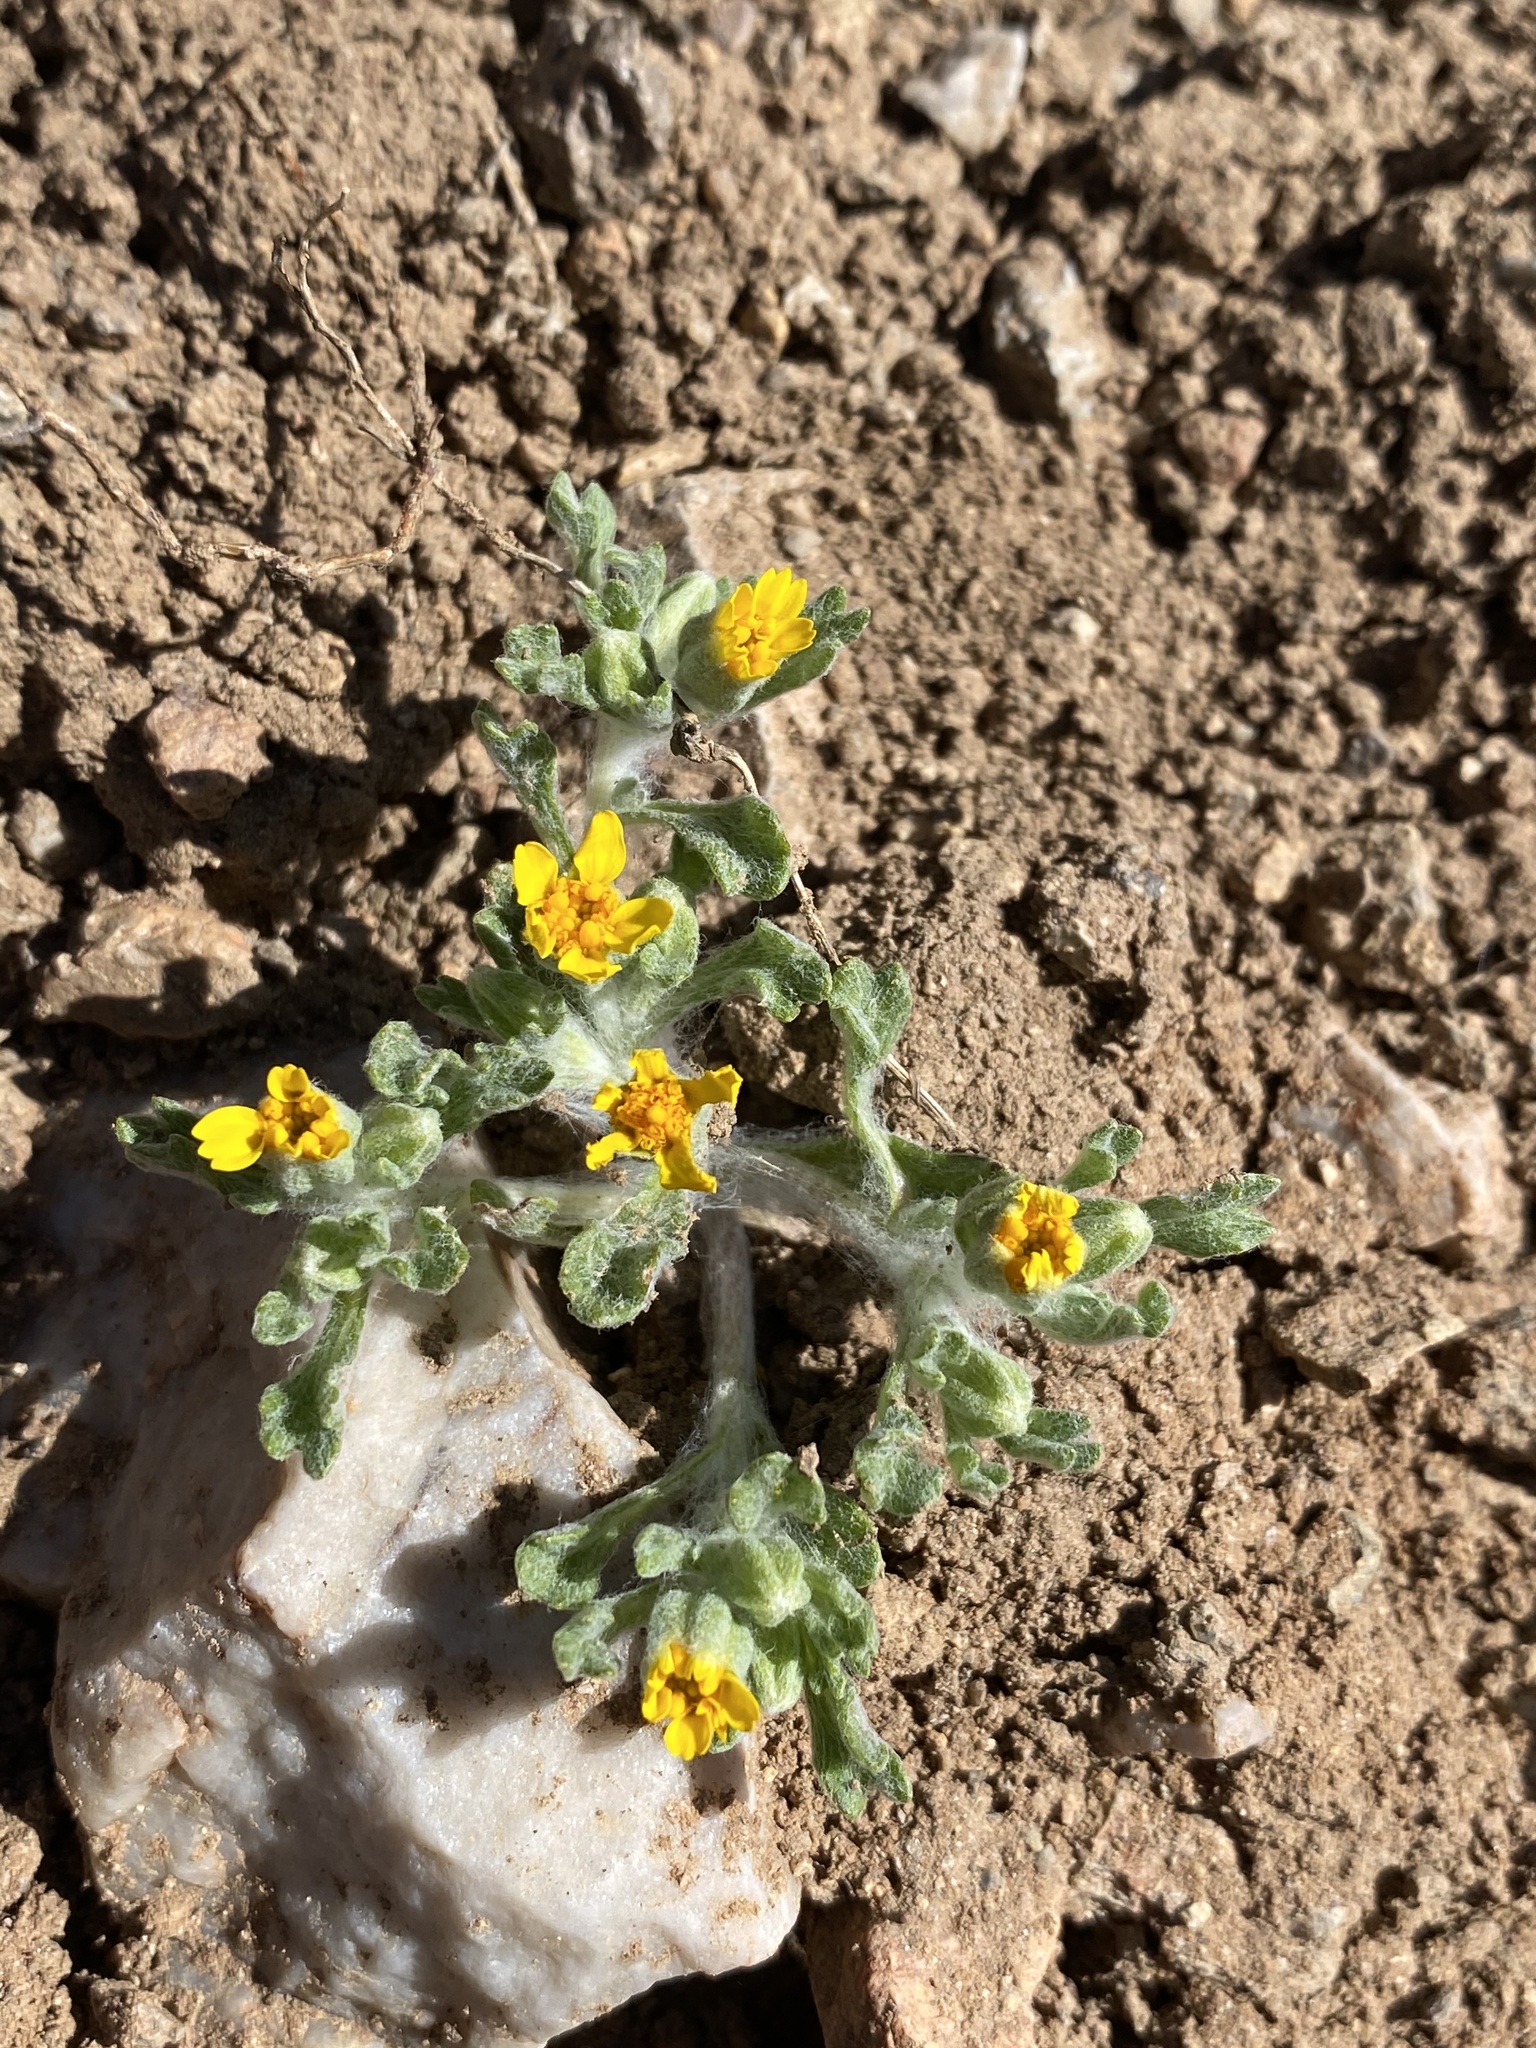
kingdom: Plantae
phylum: Tracheophyta
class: Magnoliopsida
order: Asterales
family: Asteraceae
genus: Syntrichopappus
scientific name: Syntrichopappus fremontii
